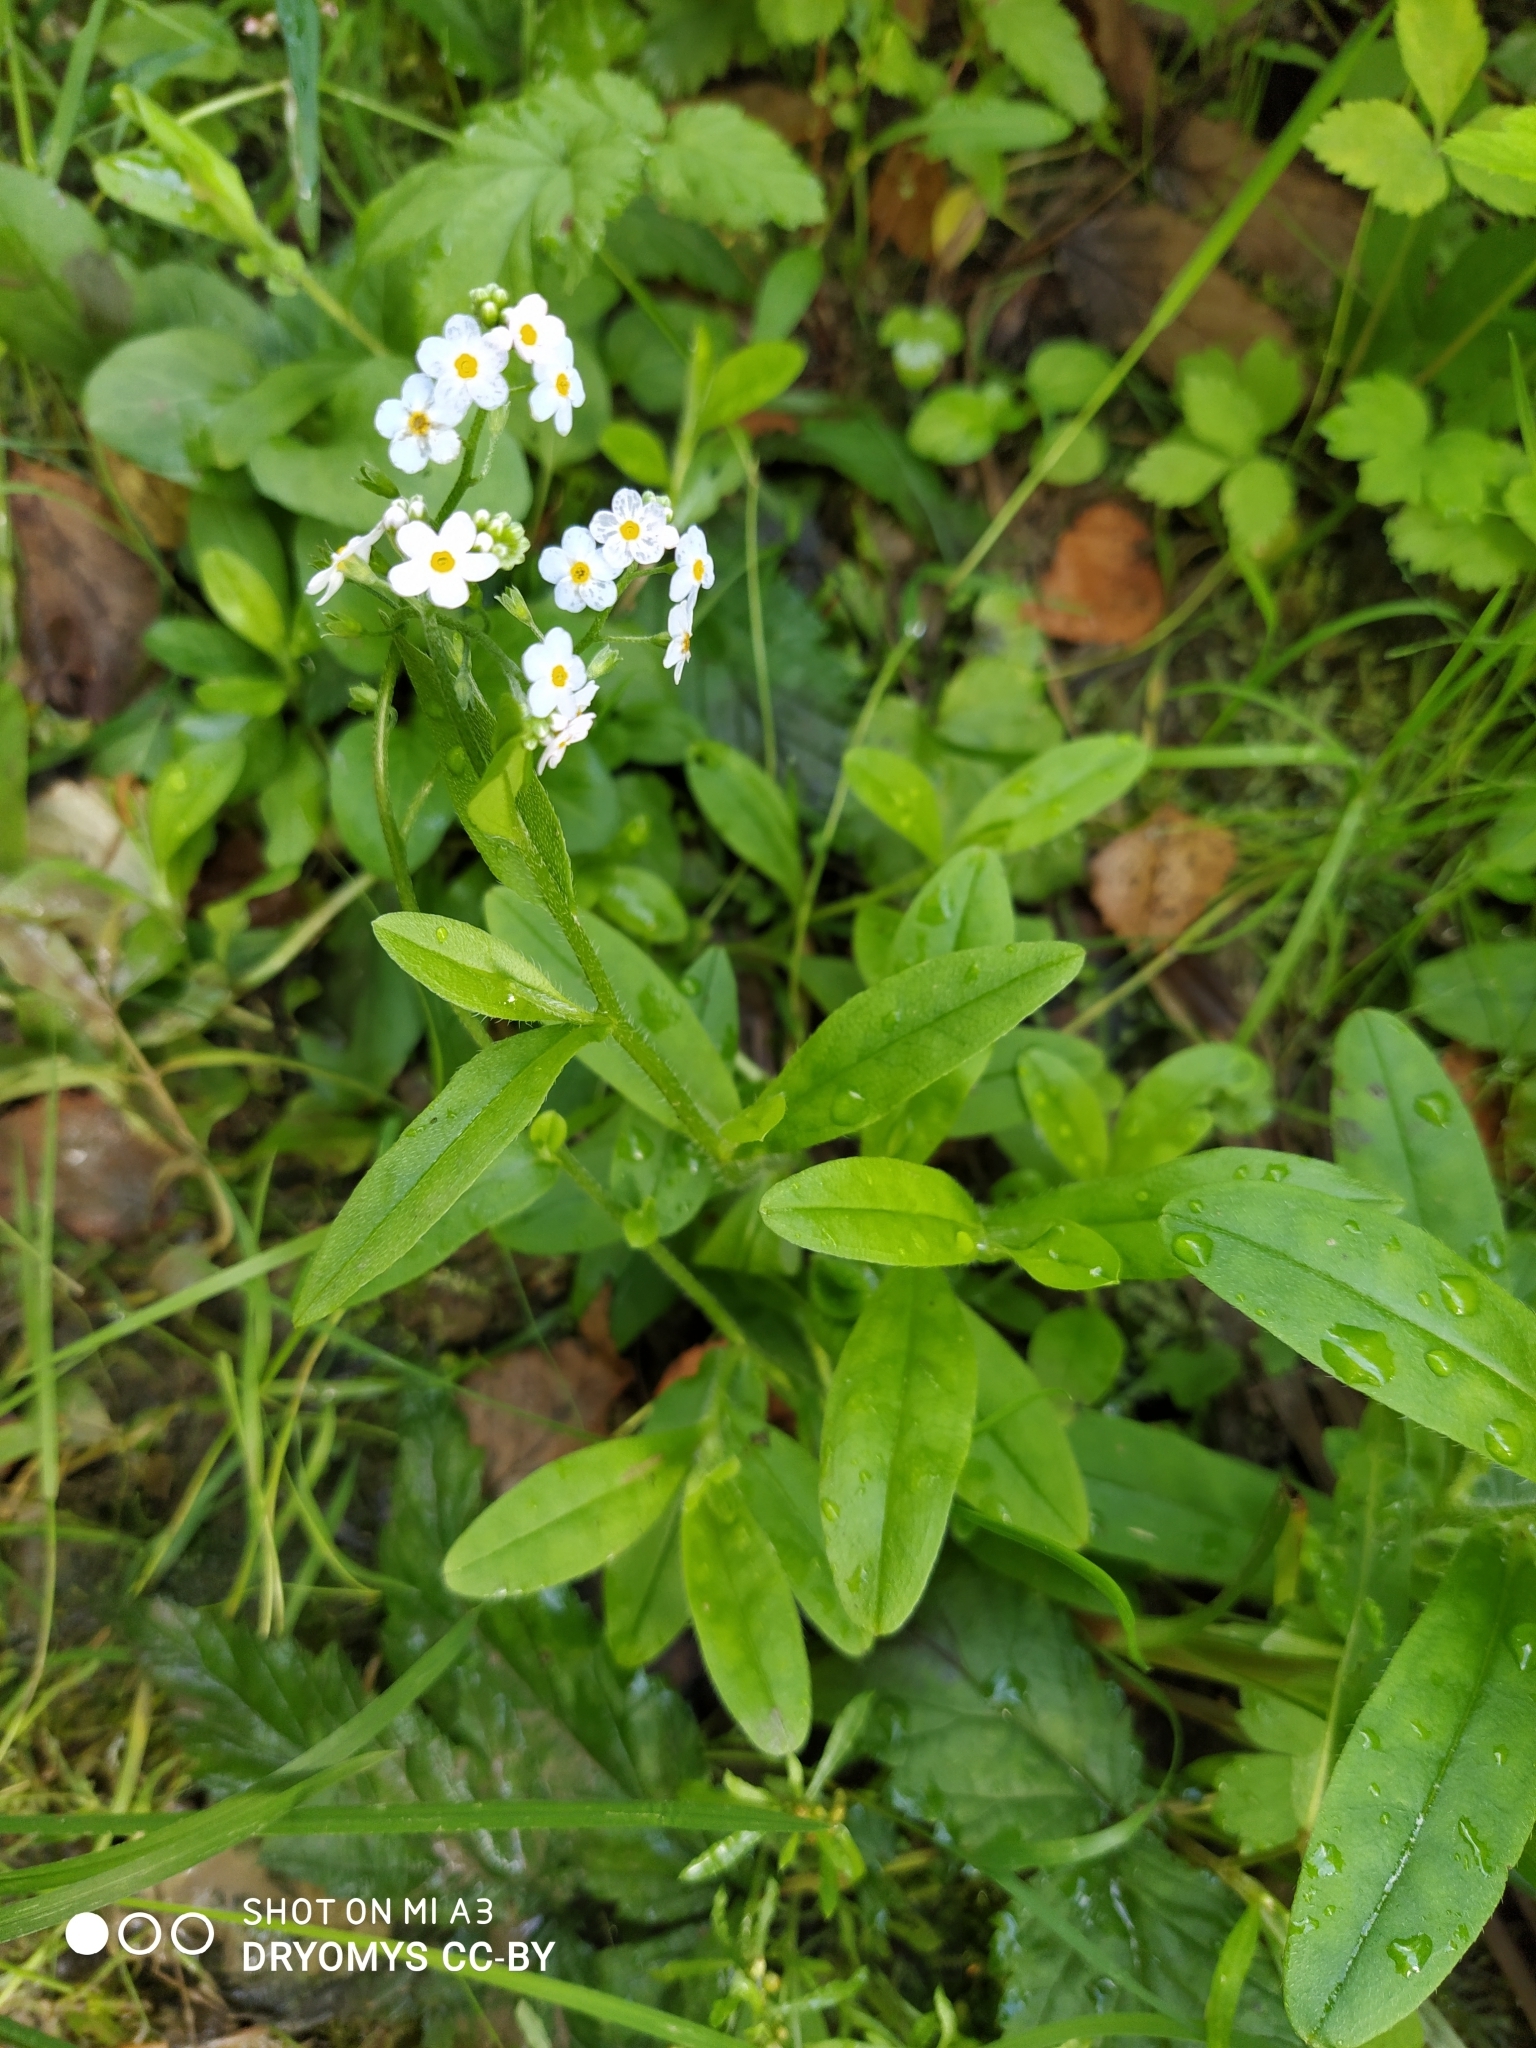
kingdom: Plantae
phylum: Tracheophyta
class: Magnoliopsida
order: Boraginales
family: Boraginaceae
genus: Myosotis
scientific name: Myosotis scorpioides
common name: Water forget-me-not
